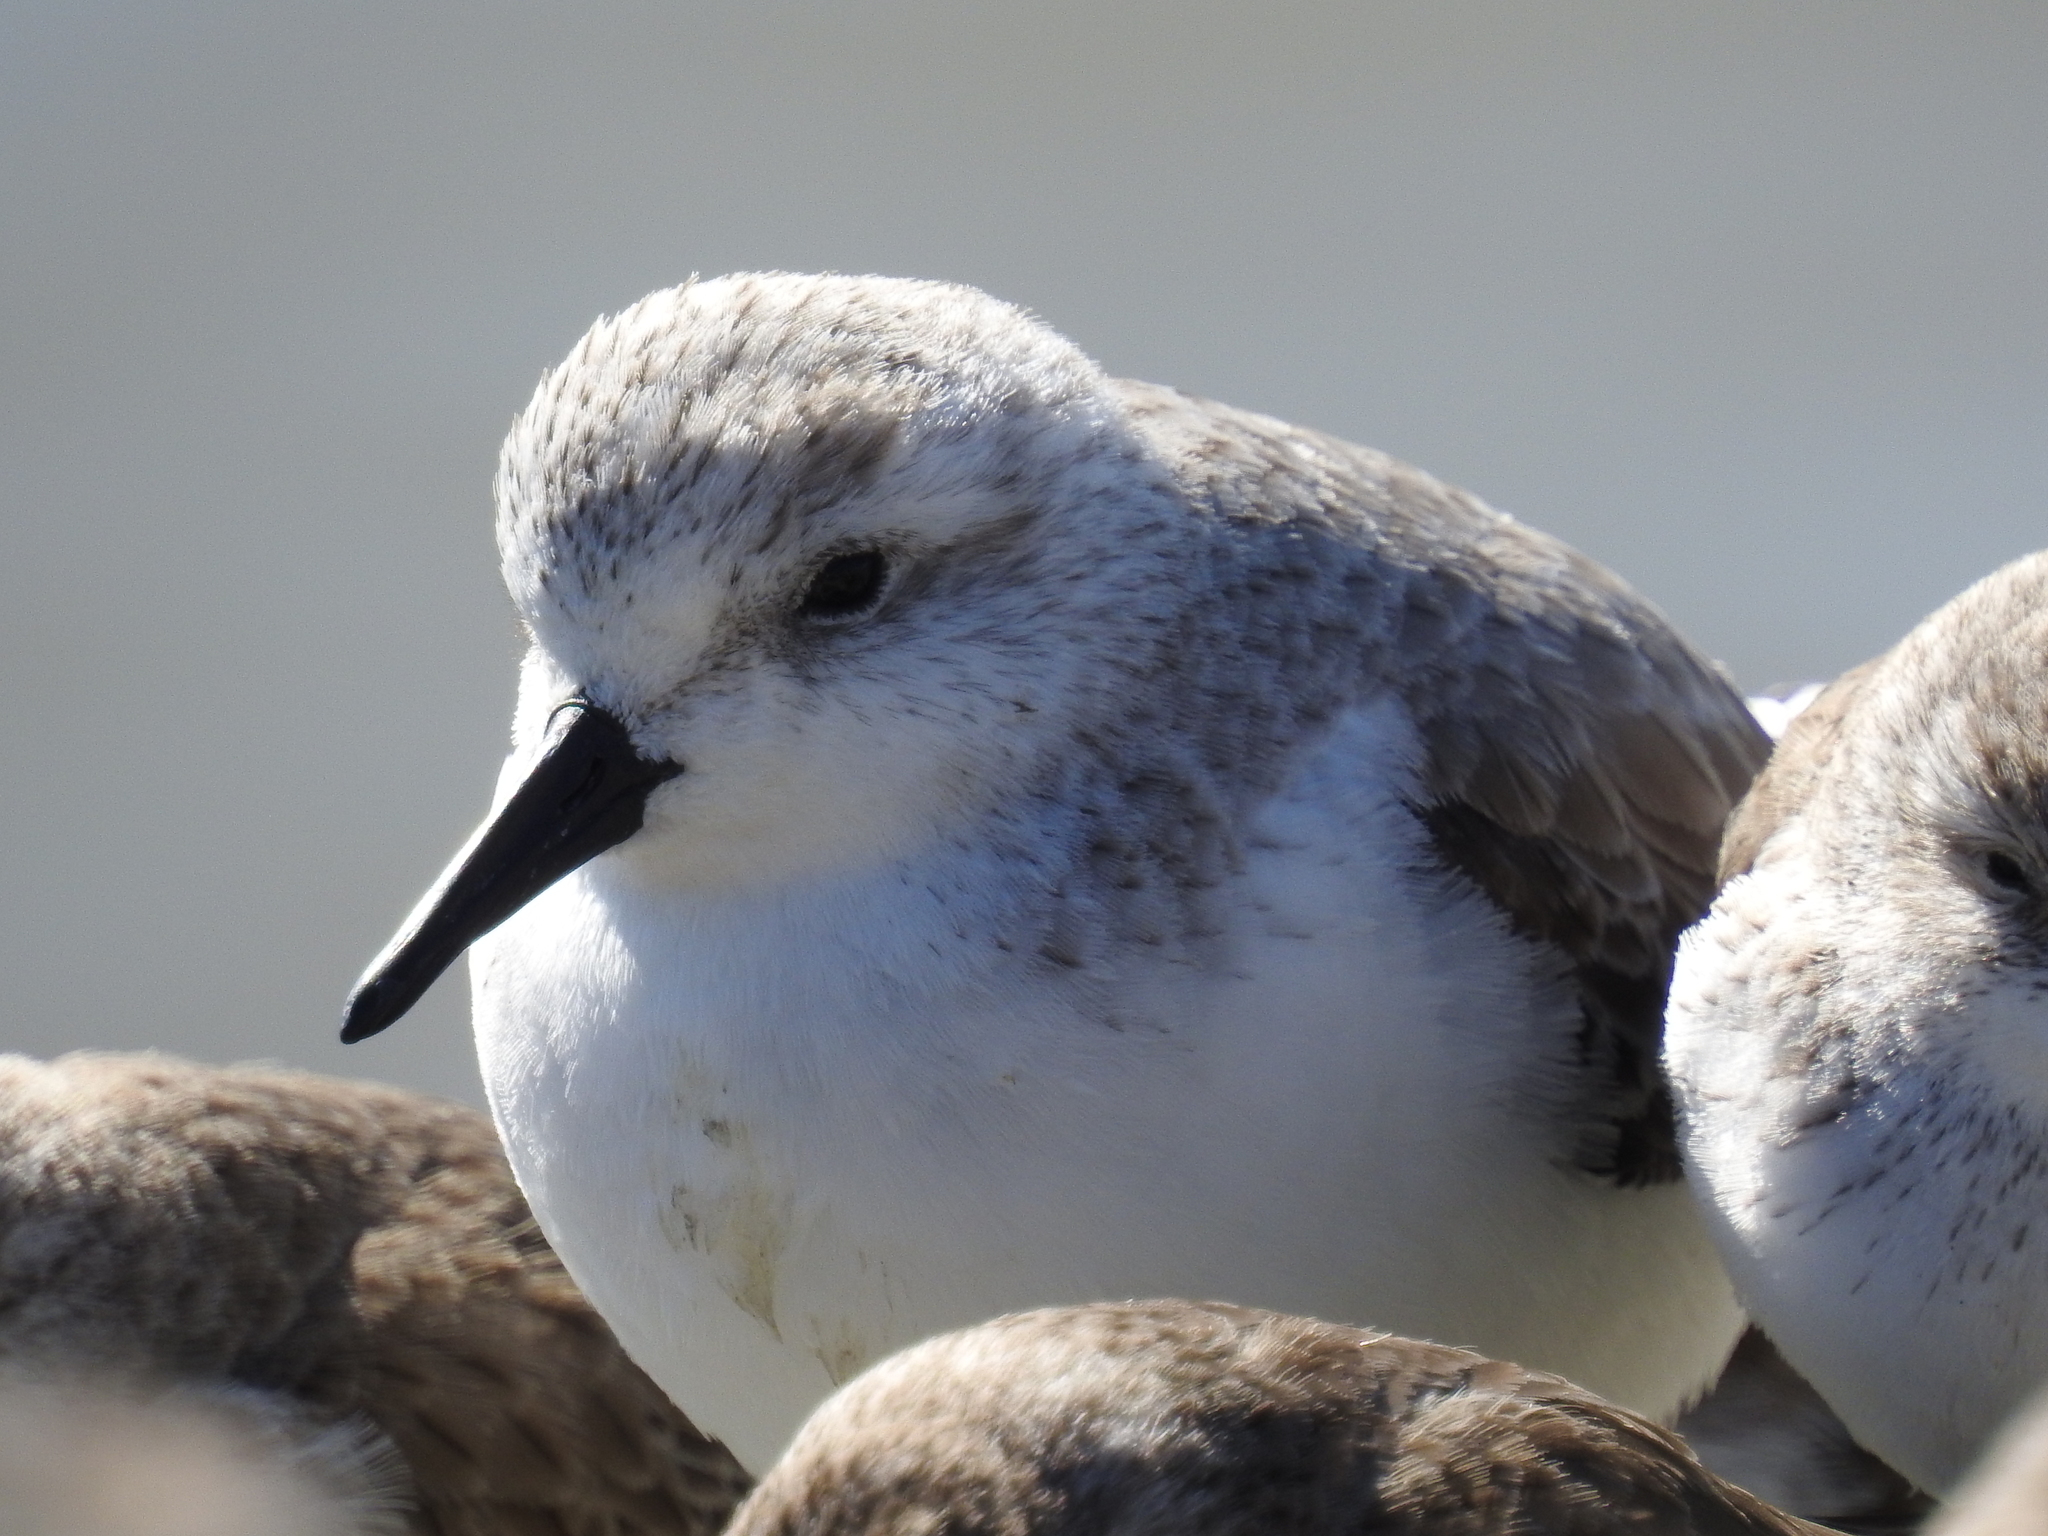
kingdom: Animalia
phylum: Chordata
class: Aves
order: Charadriiformes
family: Scolopacidae
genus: Calidris
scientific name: Calidris alba
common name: Sanderling
